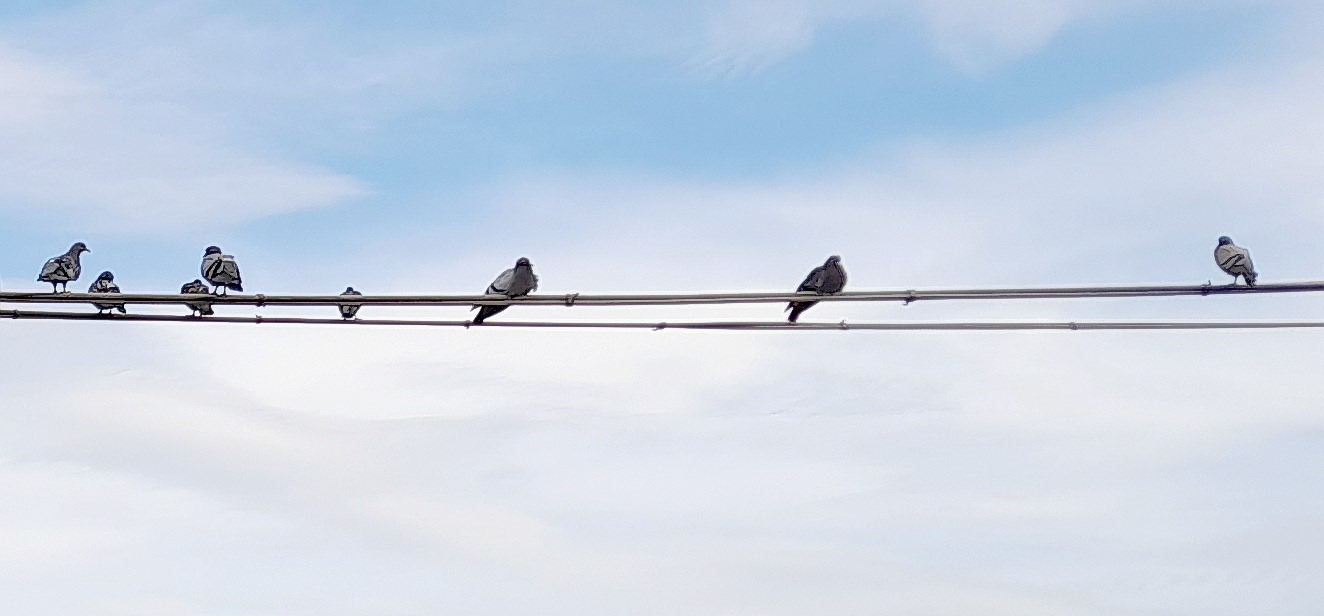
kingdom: Animalia
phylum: Chordata
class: Aves
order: Columbiformes
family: Columbidae
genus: Columba
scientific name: Columba livia
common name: Rock pigeon
